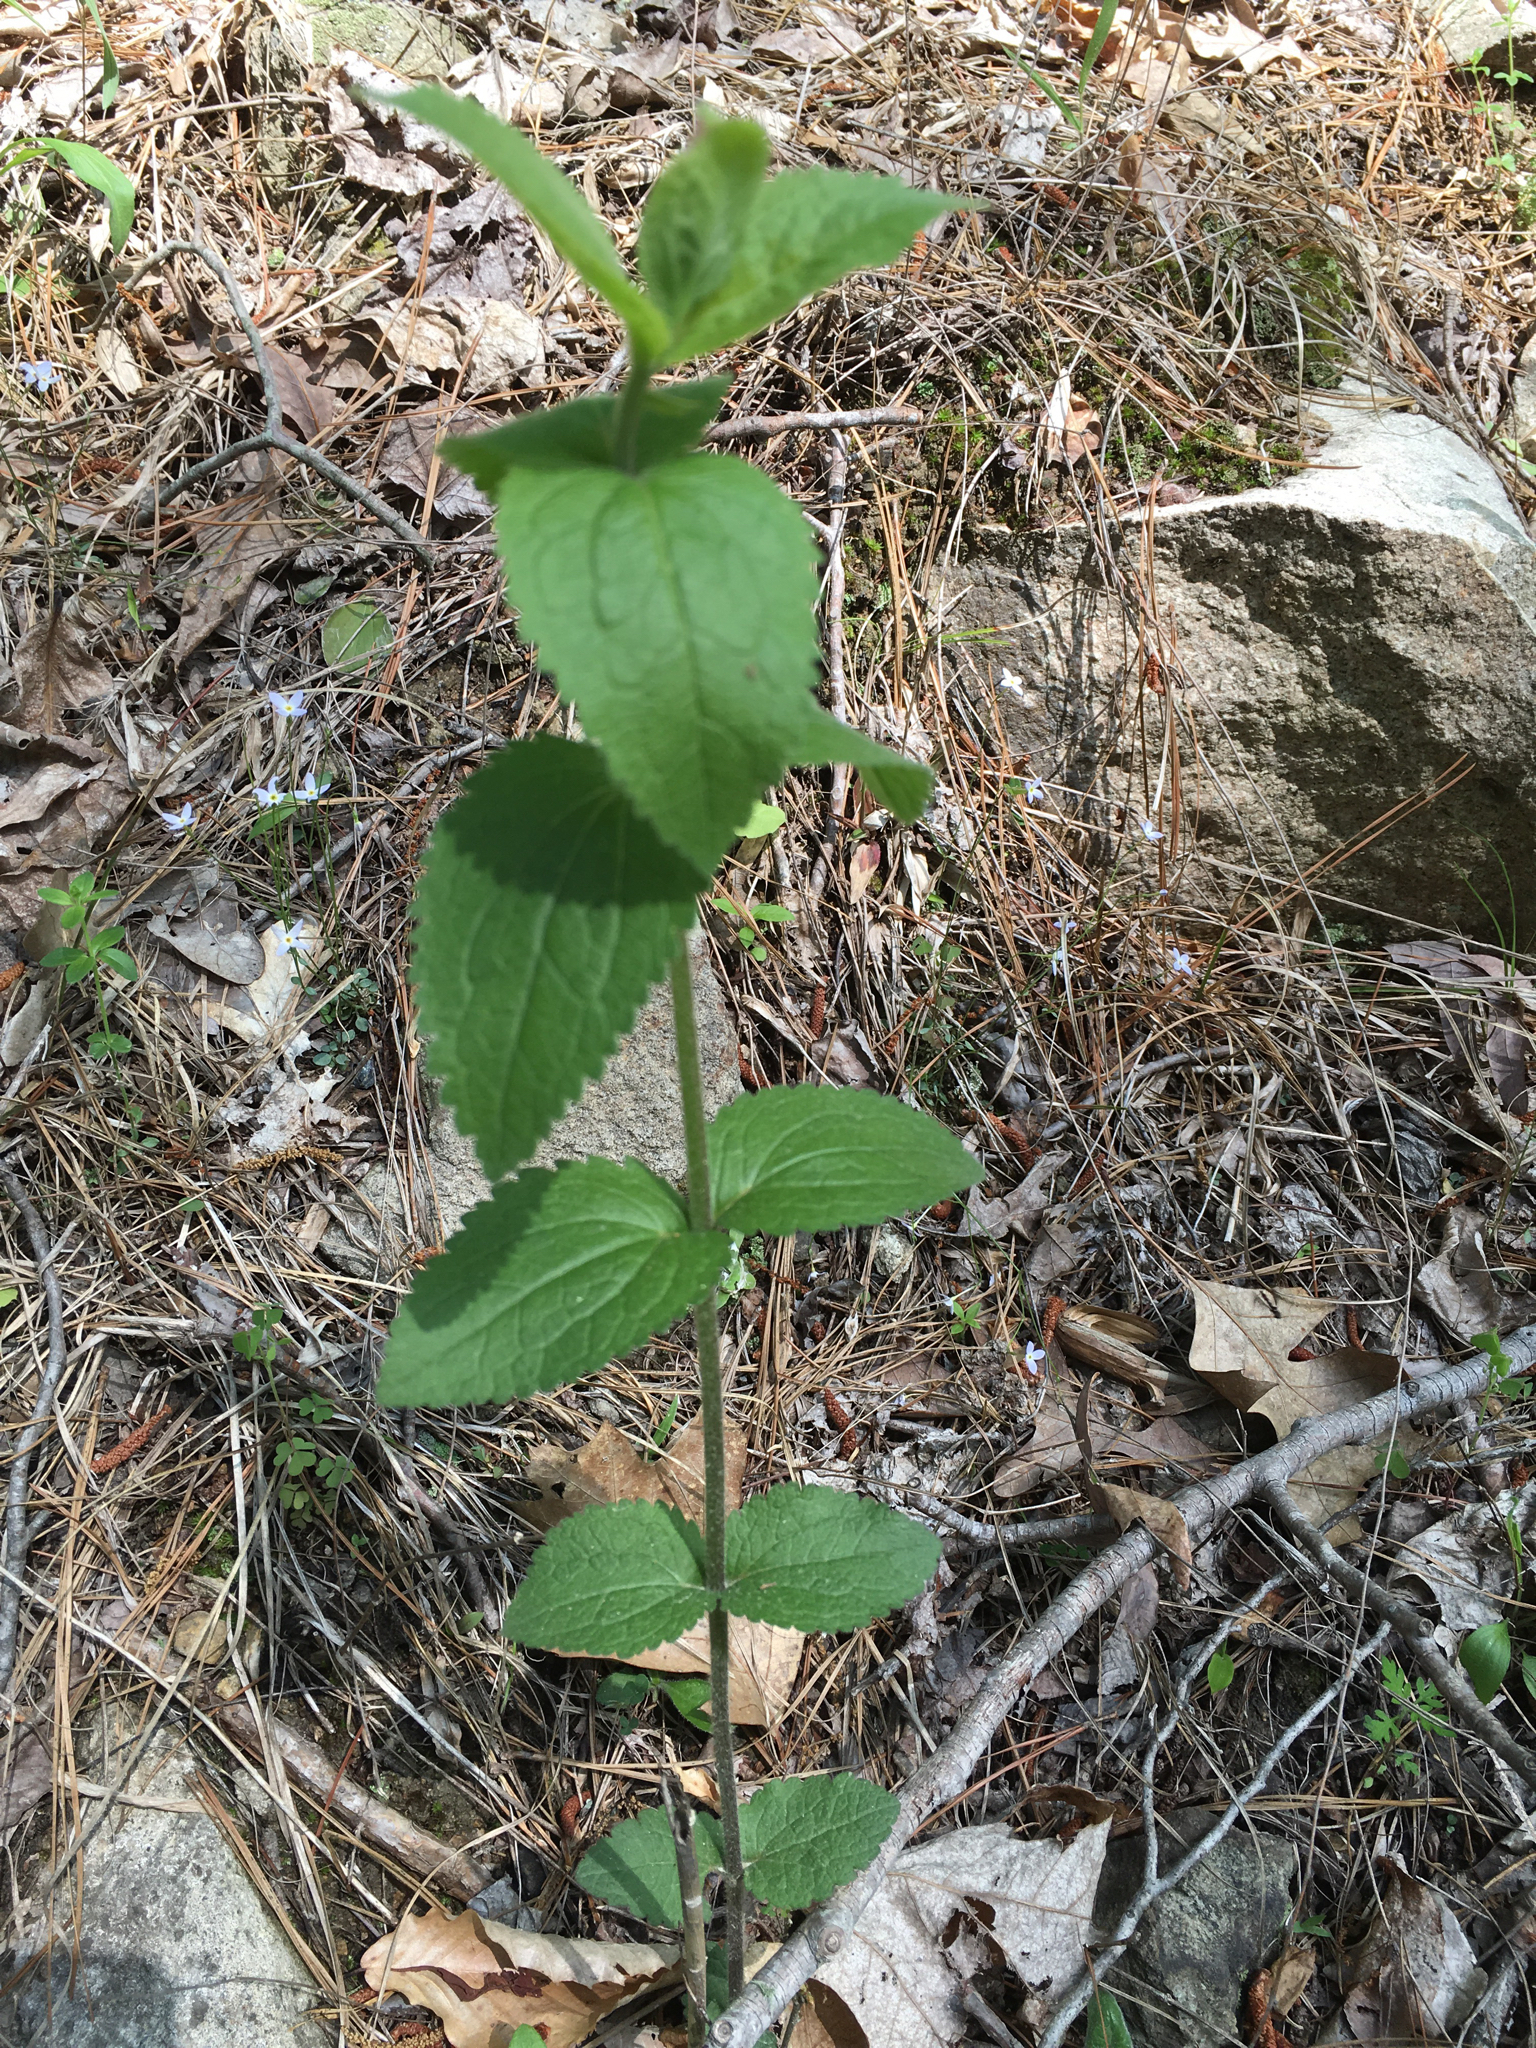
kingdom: Plantae
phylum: Tracheophyta
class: Magnoliopsida
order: Asterales
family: Asteraceae
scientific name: Asteraceae
